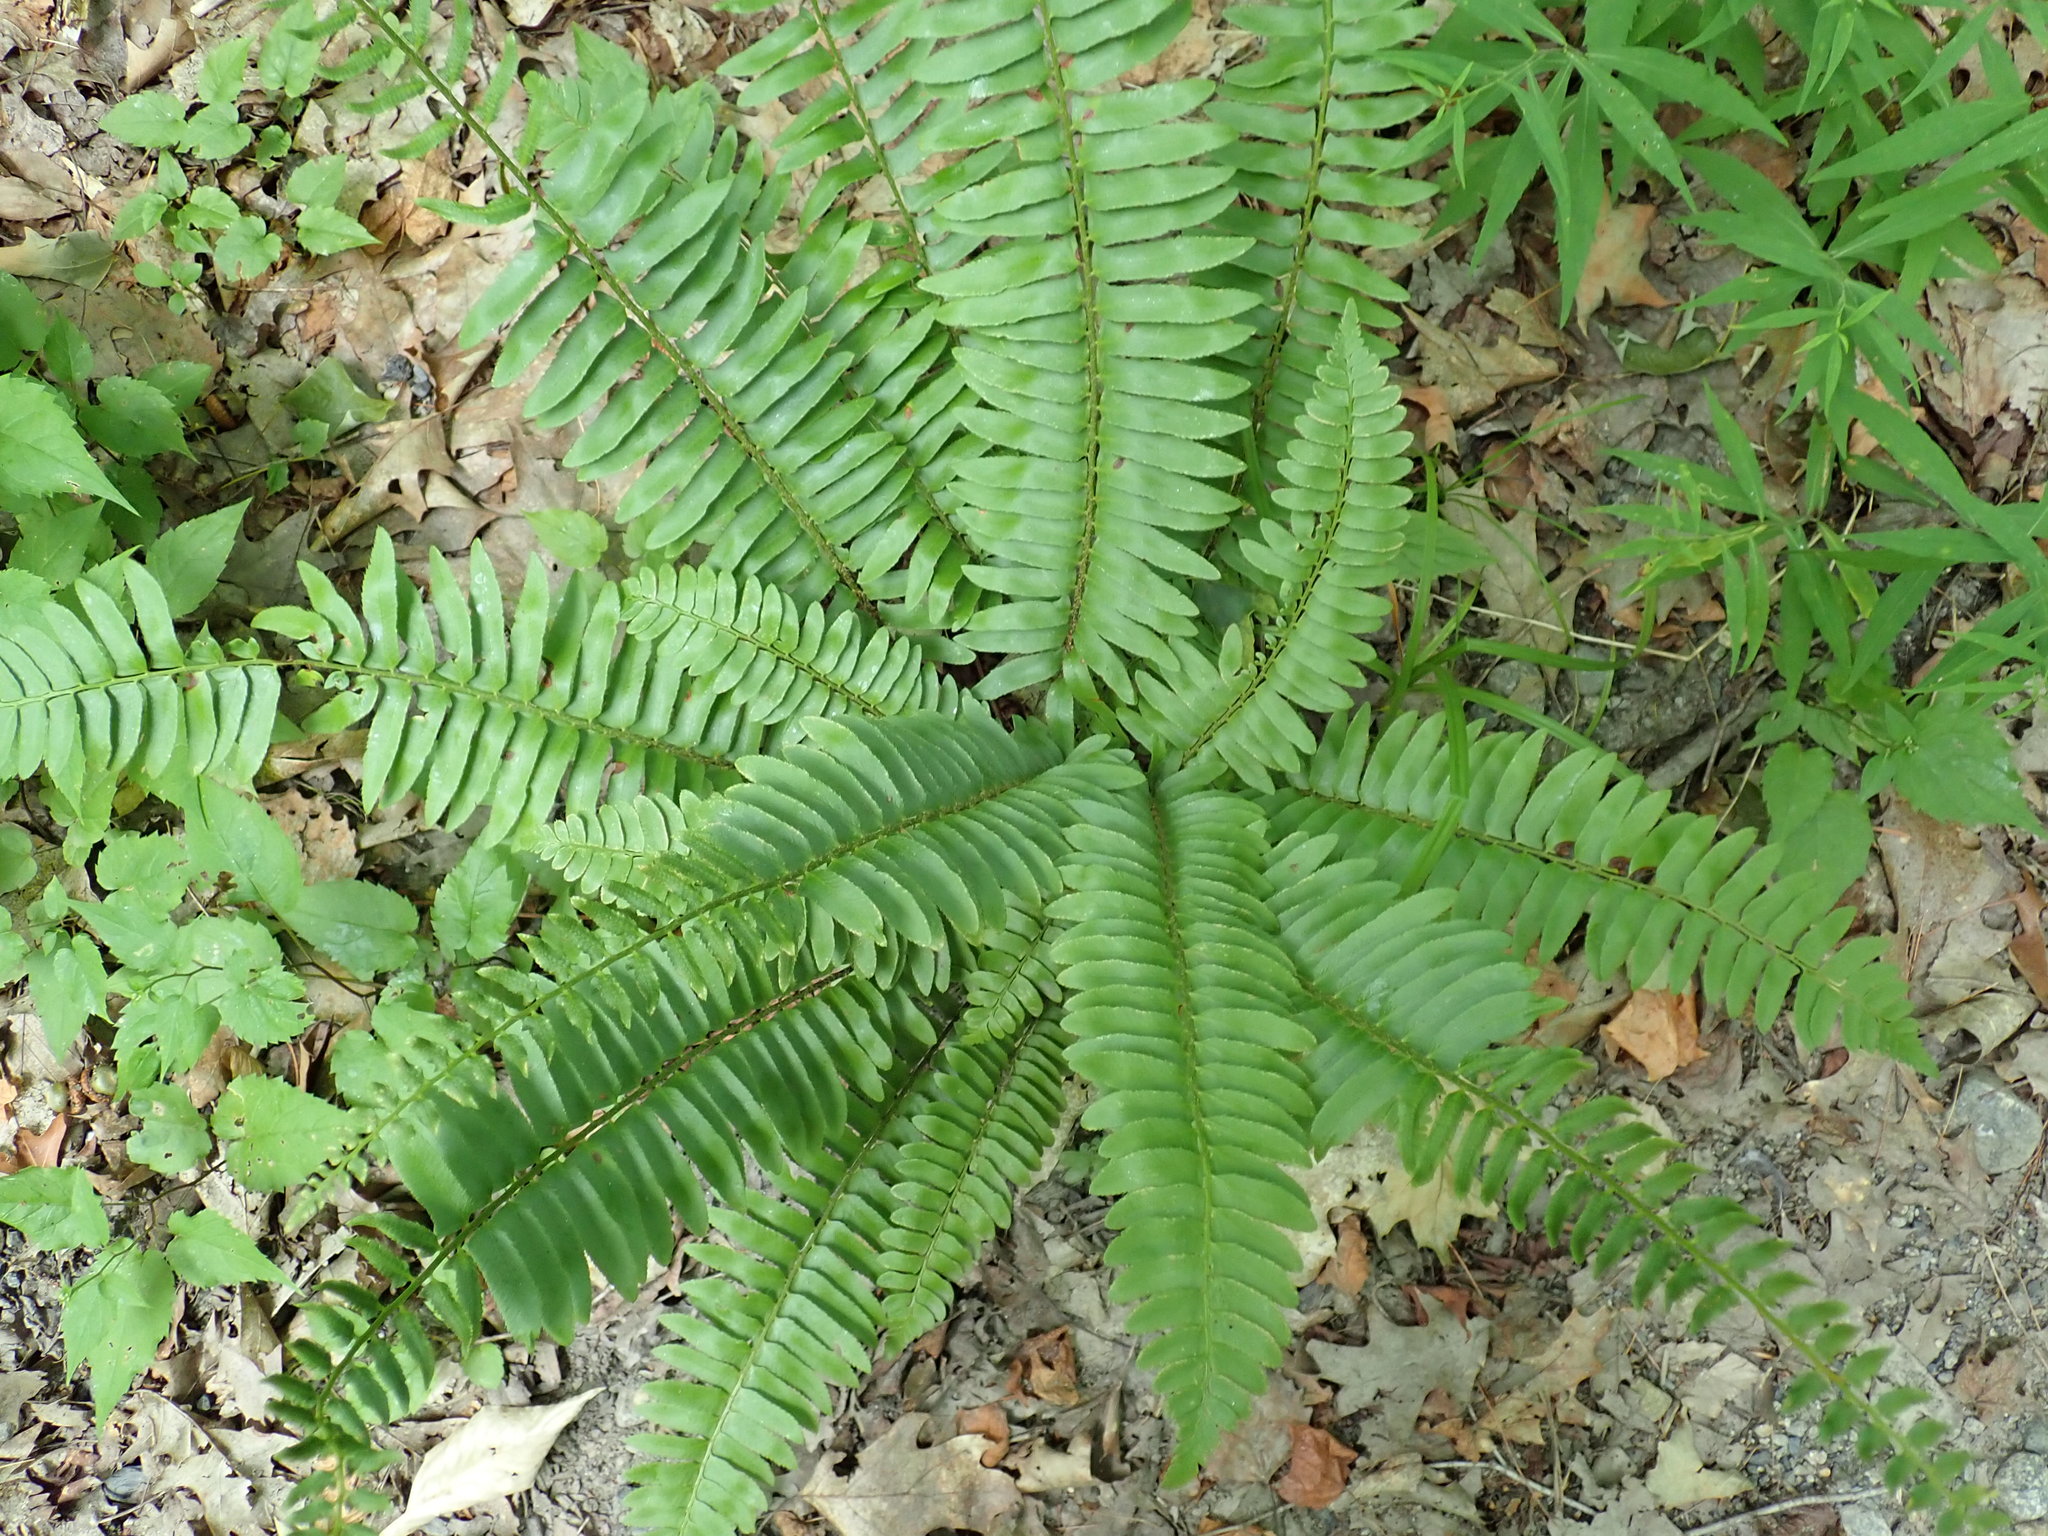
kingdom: Plantae
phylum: Tracheophyta
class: Polypodiopsida
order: Polypodiales
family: Dryopteridaceae
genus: Polystichum
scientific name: Polystichum acrostichoides
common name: Christmas fern
